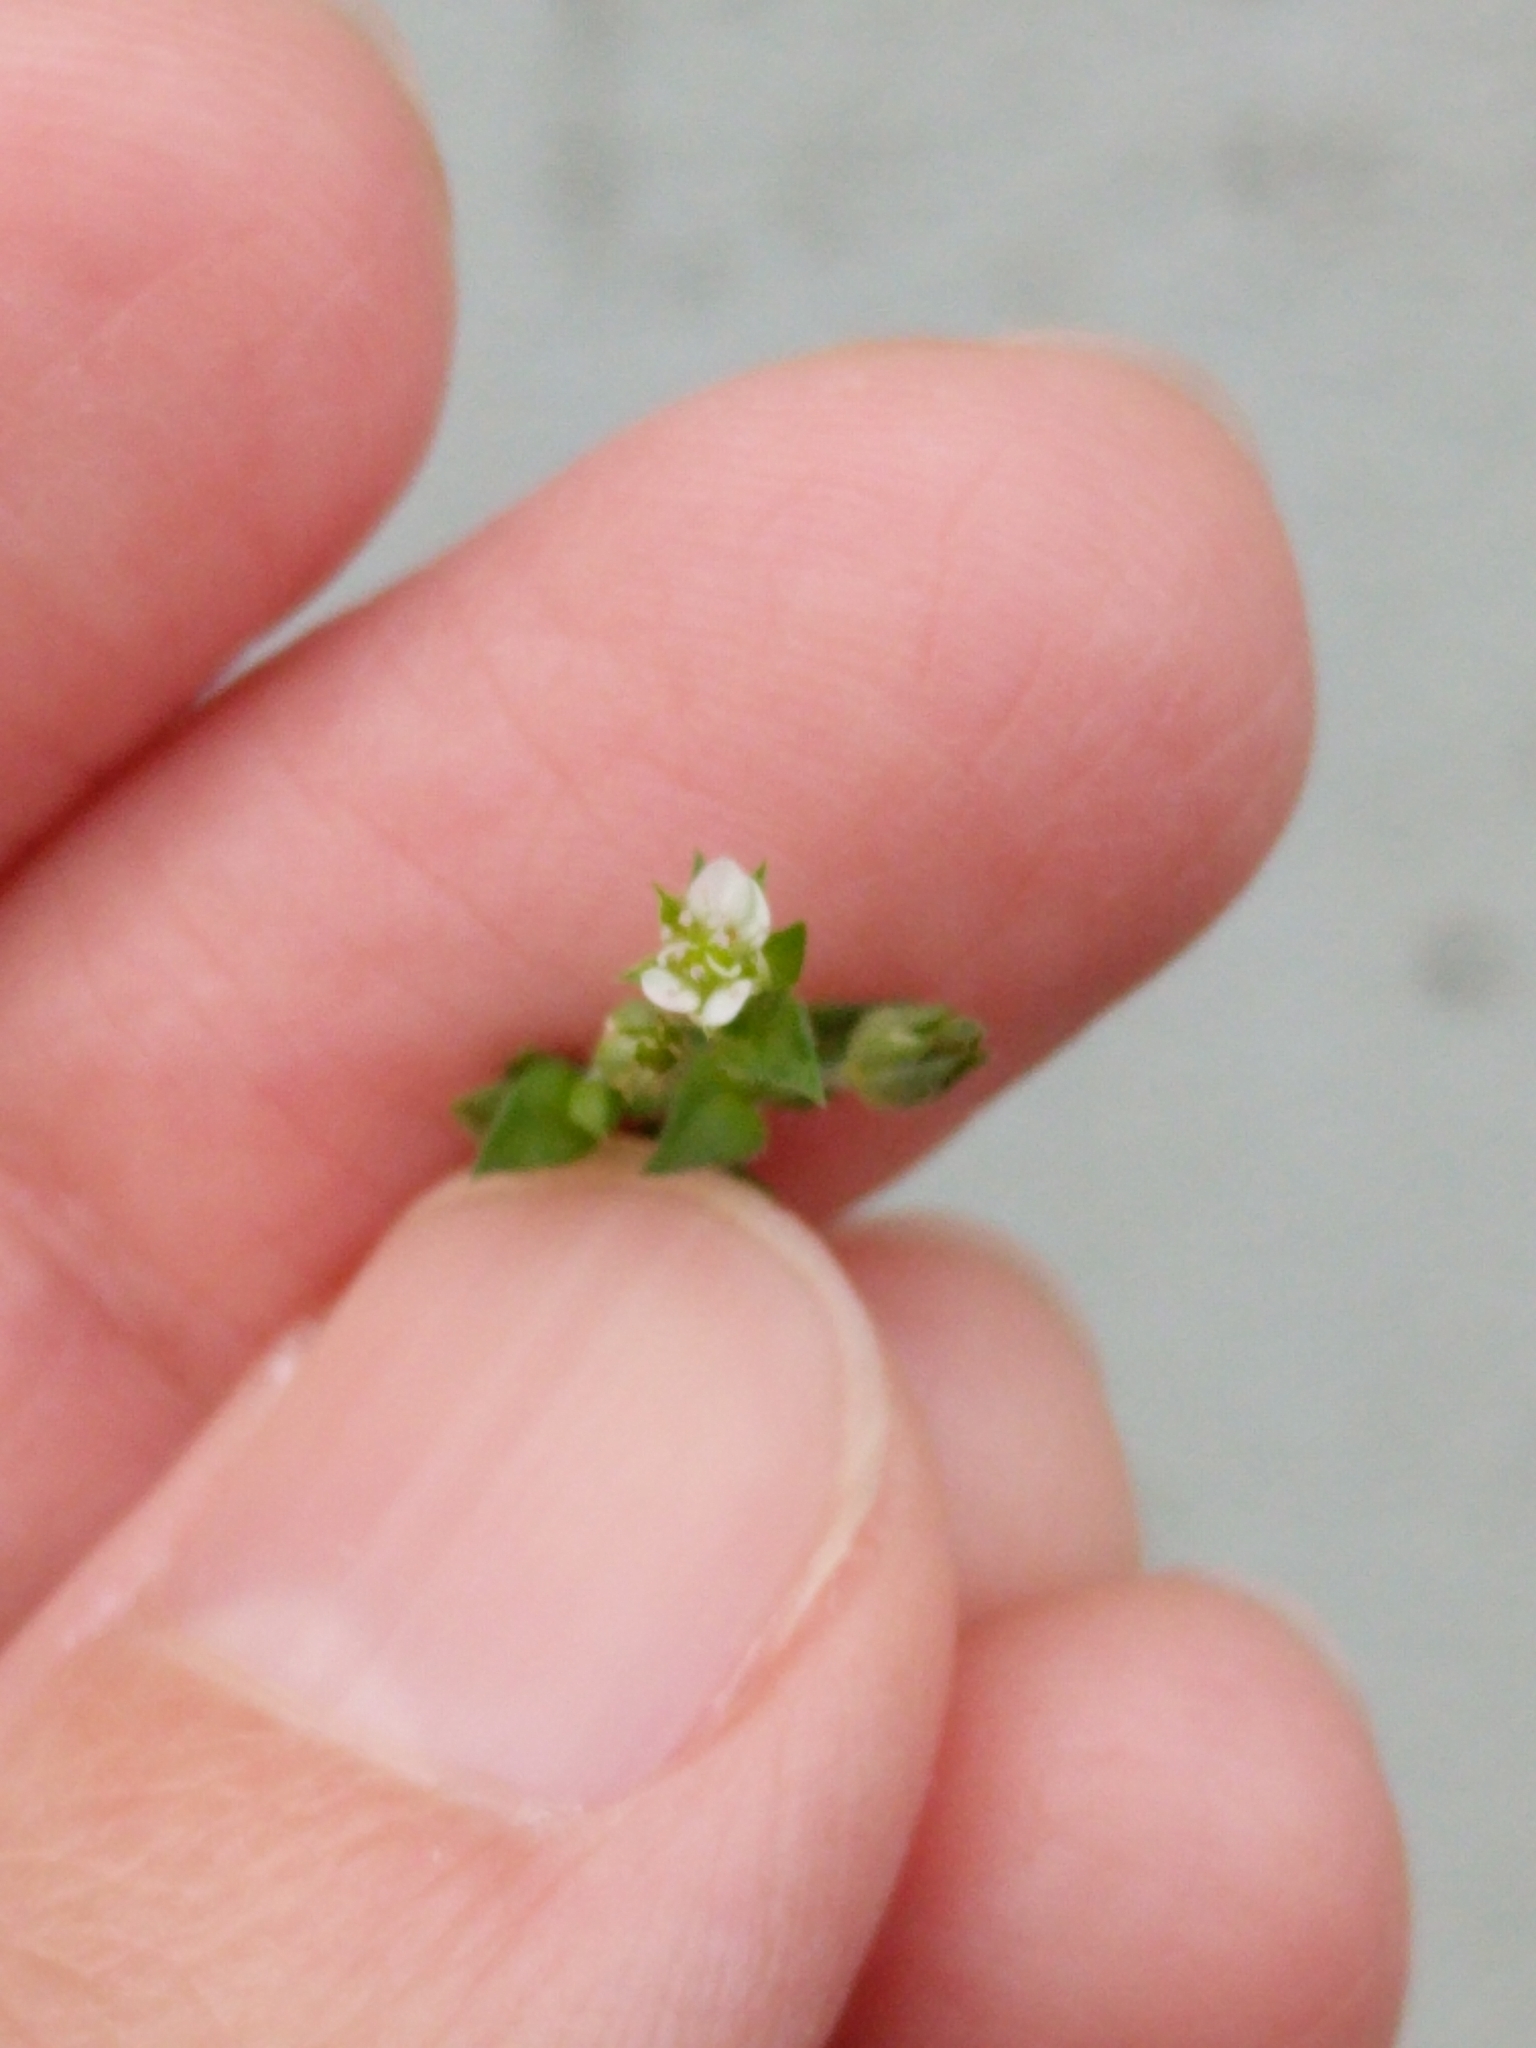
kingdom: Plantae
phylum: Tracheophyta
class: Magnoliopsida
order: Caryophyllales
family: Caryophyllaceae
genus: Arenaria
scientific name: Arenaria serpyllifolia
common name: Thyme-leaved sandwort
